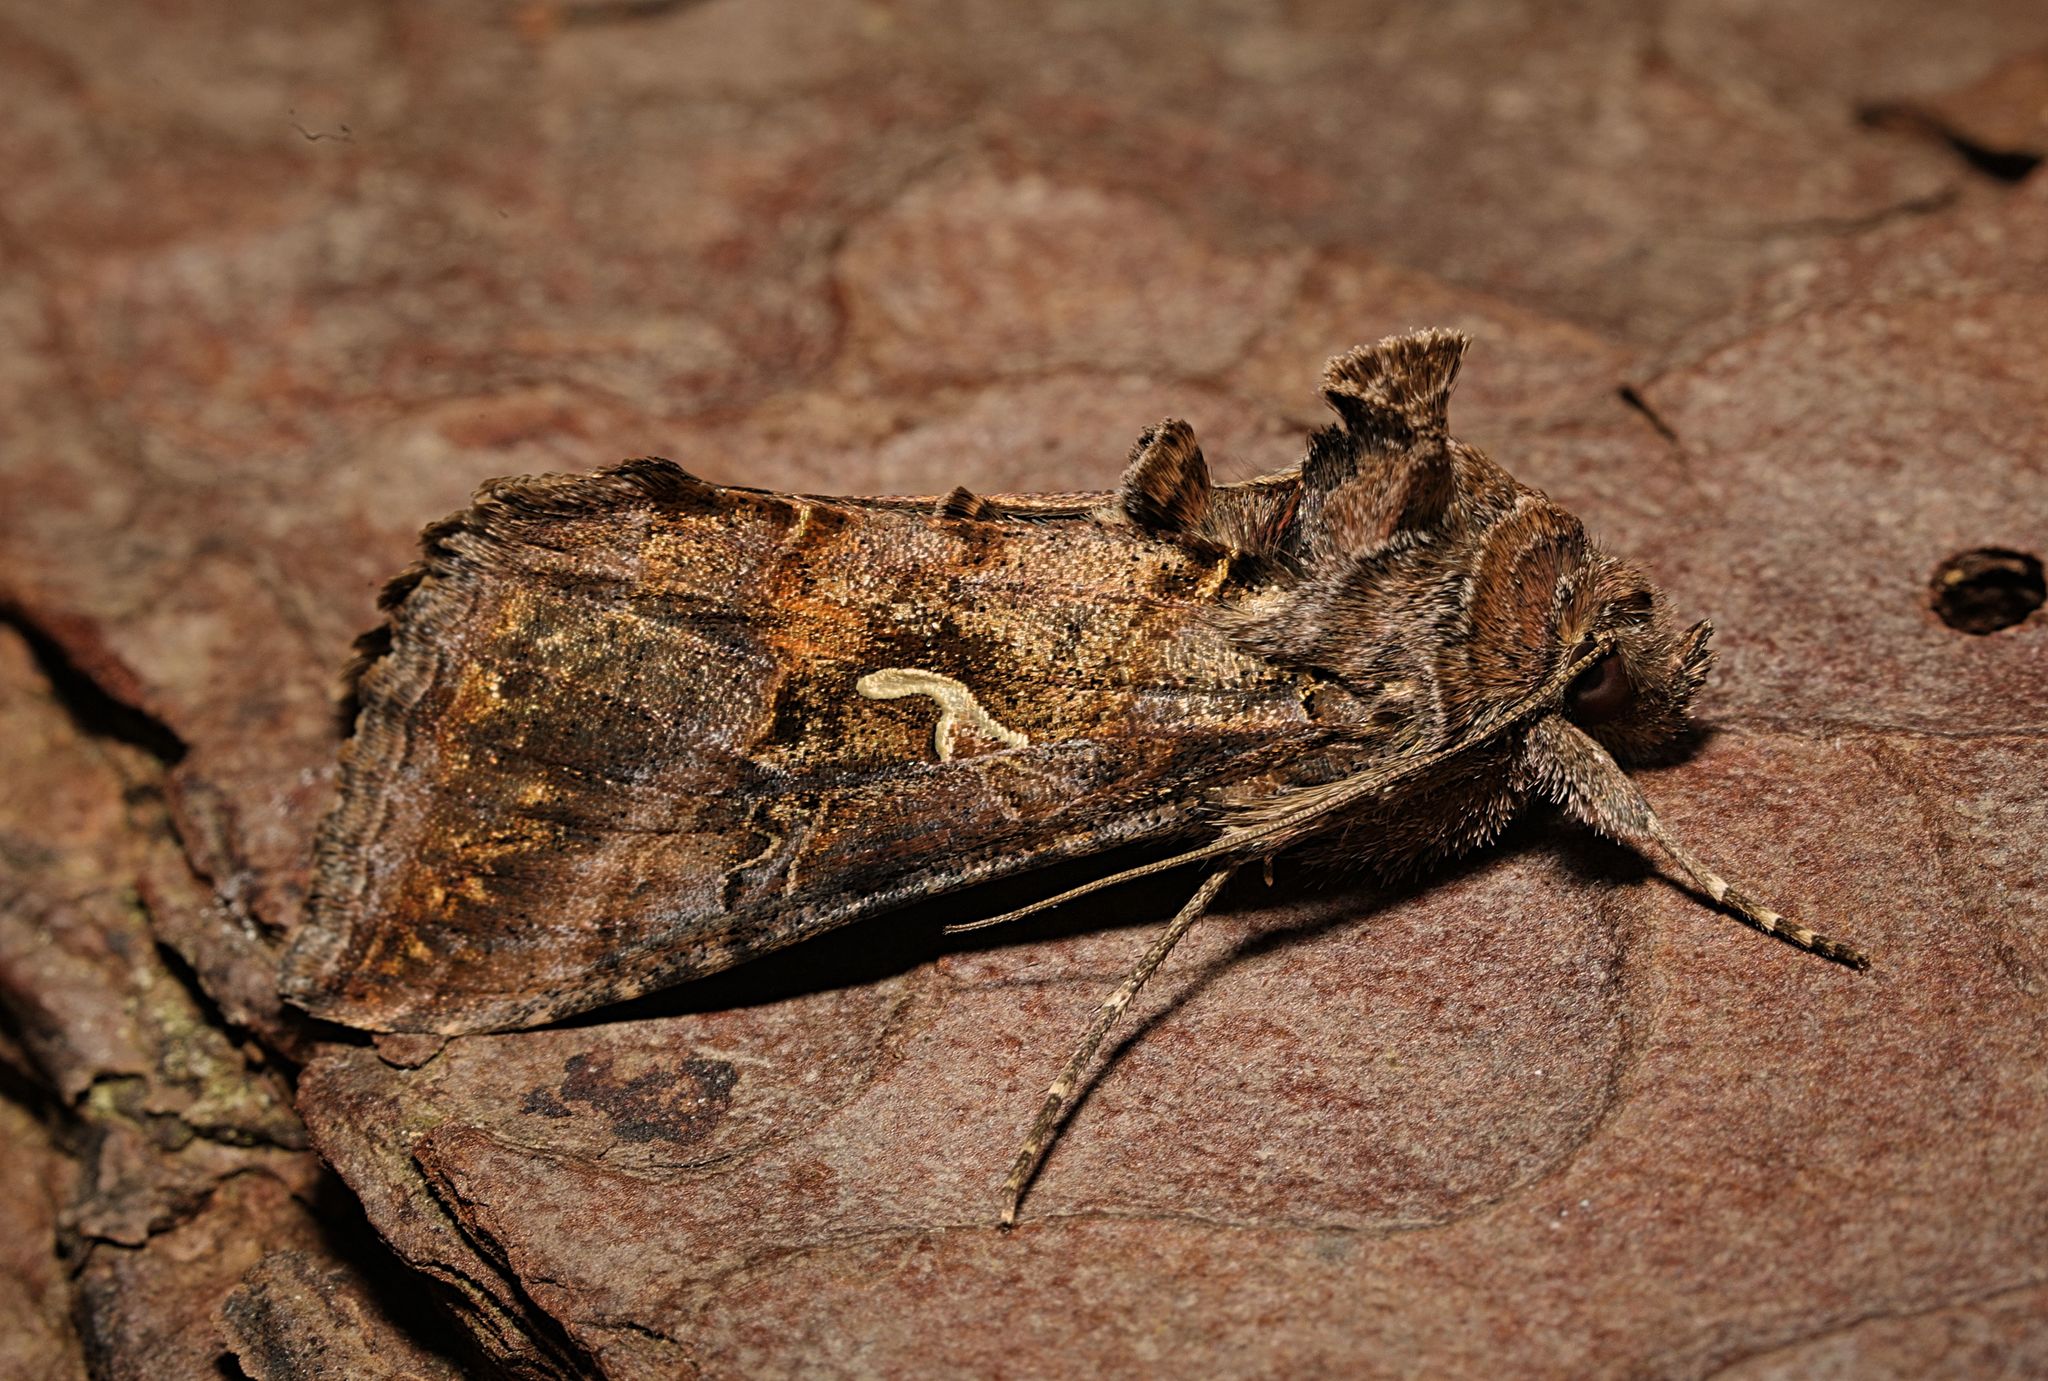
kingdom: Animalia
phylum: Arthropoda
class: Insecta
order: Lepidoptera
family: Noctuidae
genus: Autographa
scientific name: Autographa gamma
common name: Silver y
